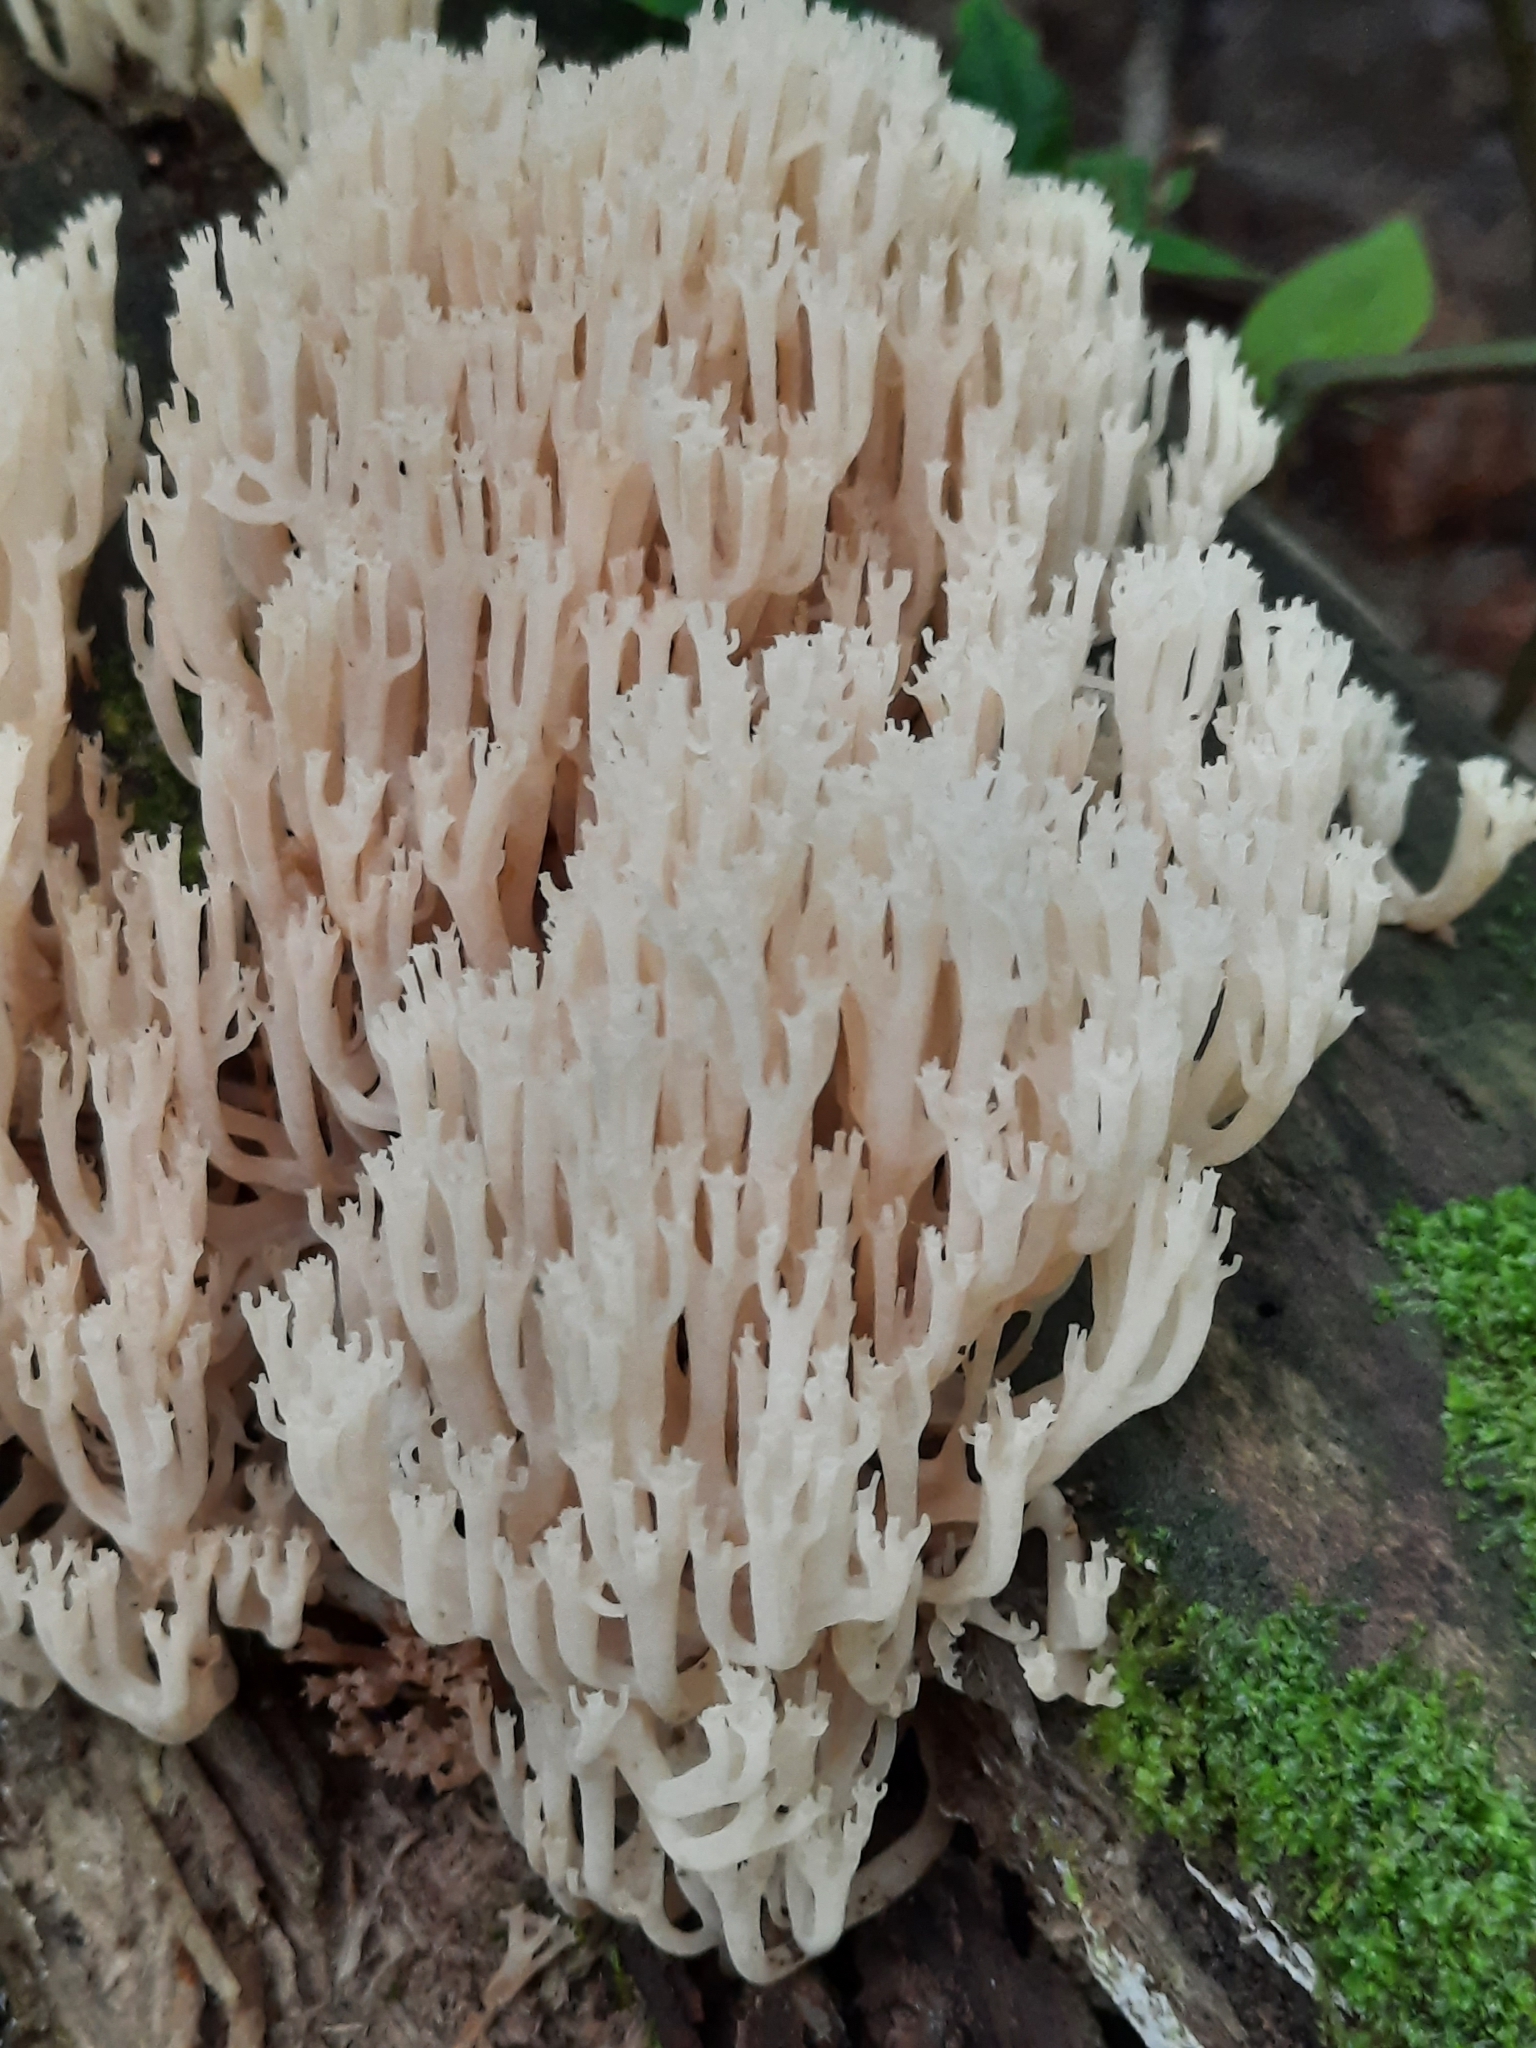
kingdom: Fungi
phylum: Basidiomycota
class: Agaricomycetes
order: Russulales
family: Auriscalpiaceae
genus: Artomyces
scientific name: Artomyces pyxidatus
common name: Crown-tipped coral fungus
